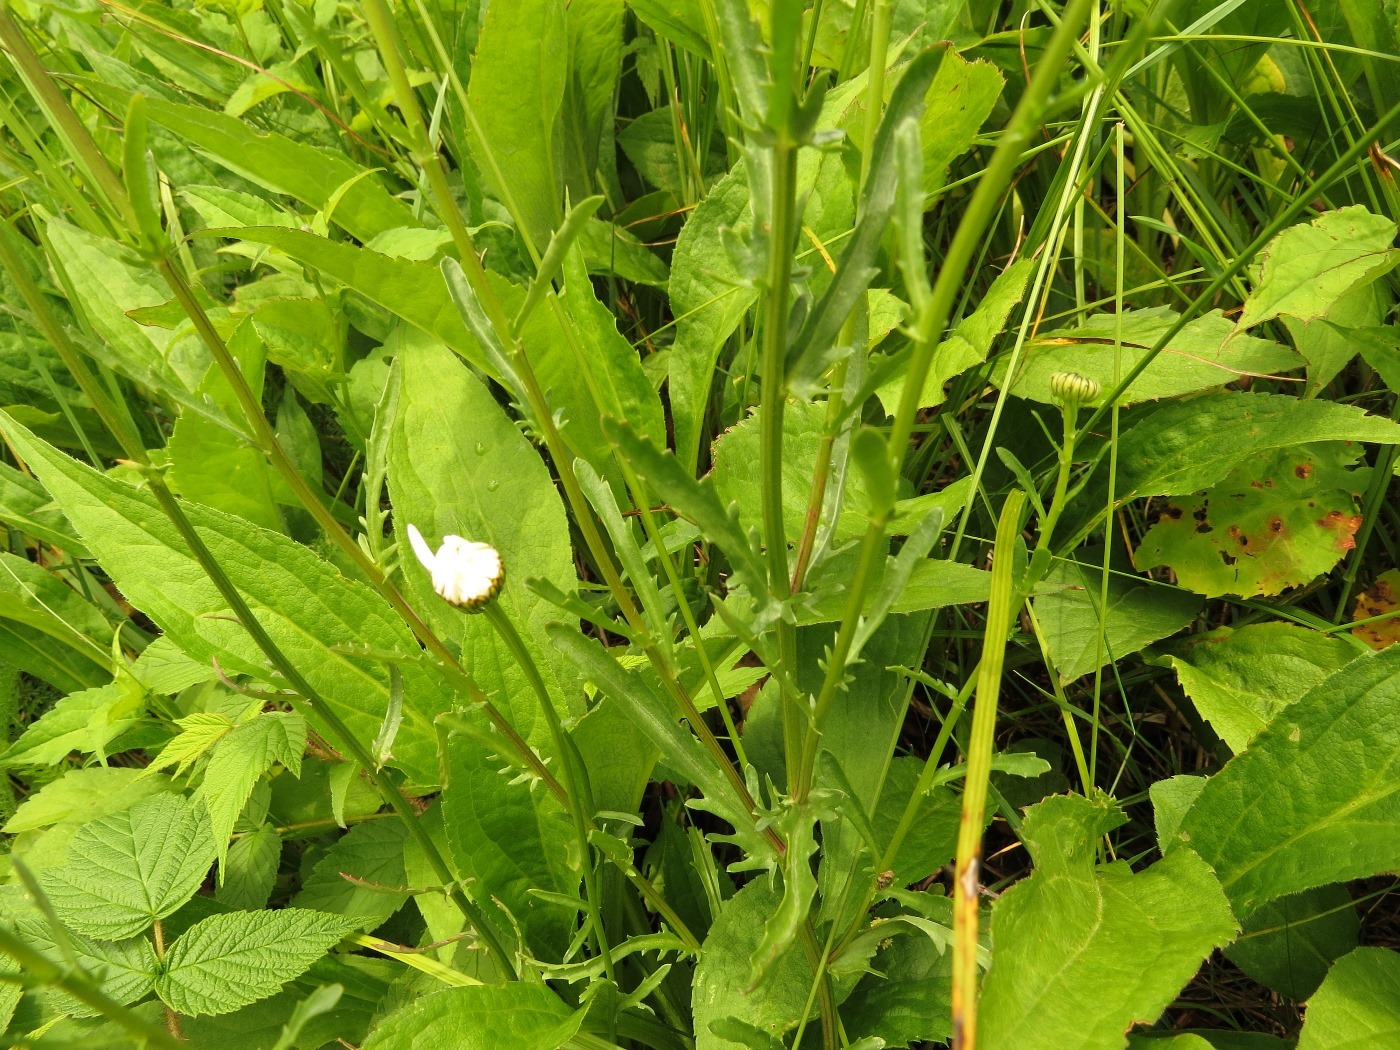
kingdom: Plantae
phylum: Tracheophyta
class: Magnoliopsida
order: Asterales
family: Asteraceae
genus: Leucanthemum
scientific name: Leucanthemum vulgare
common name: Oxeye daisy
